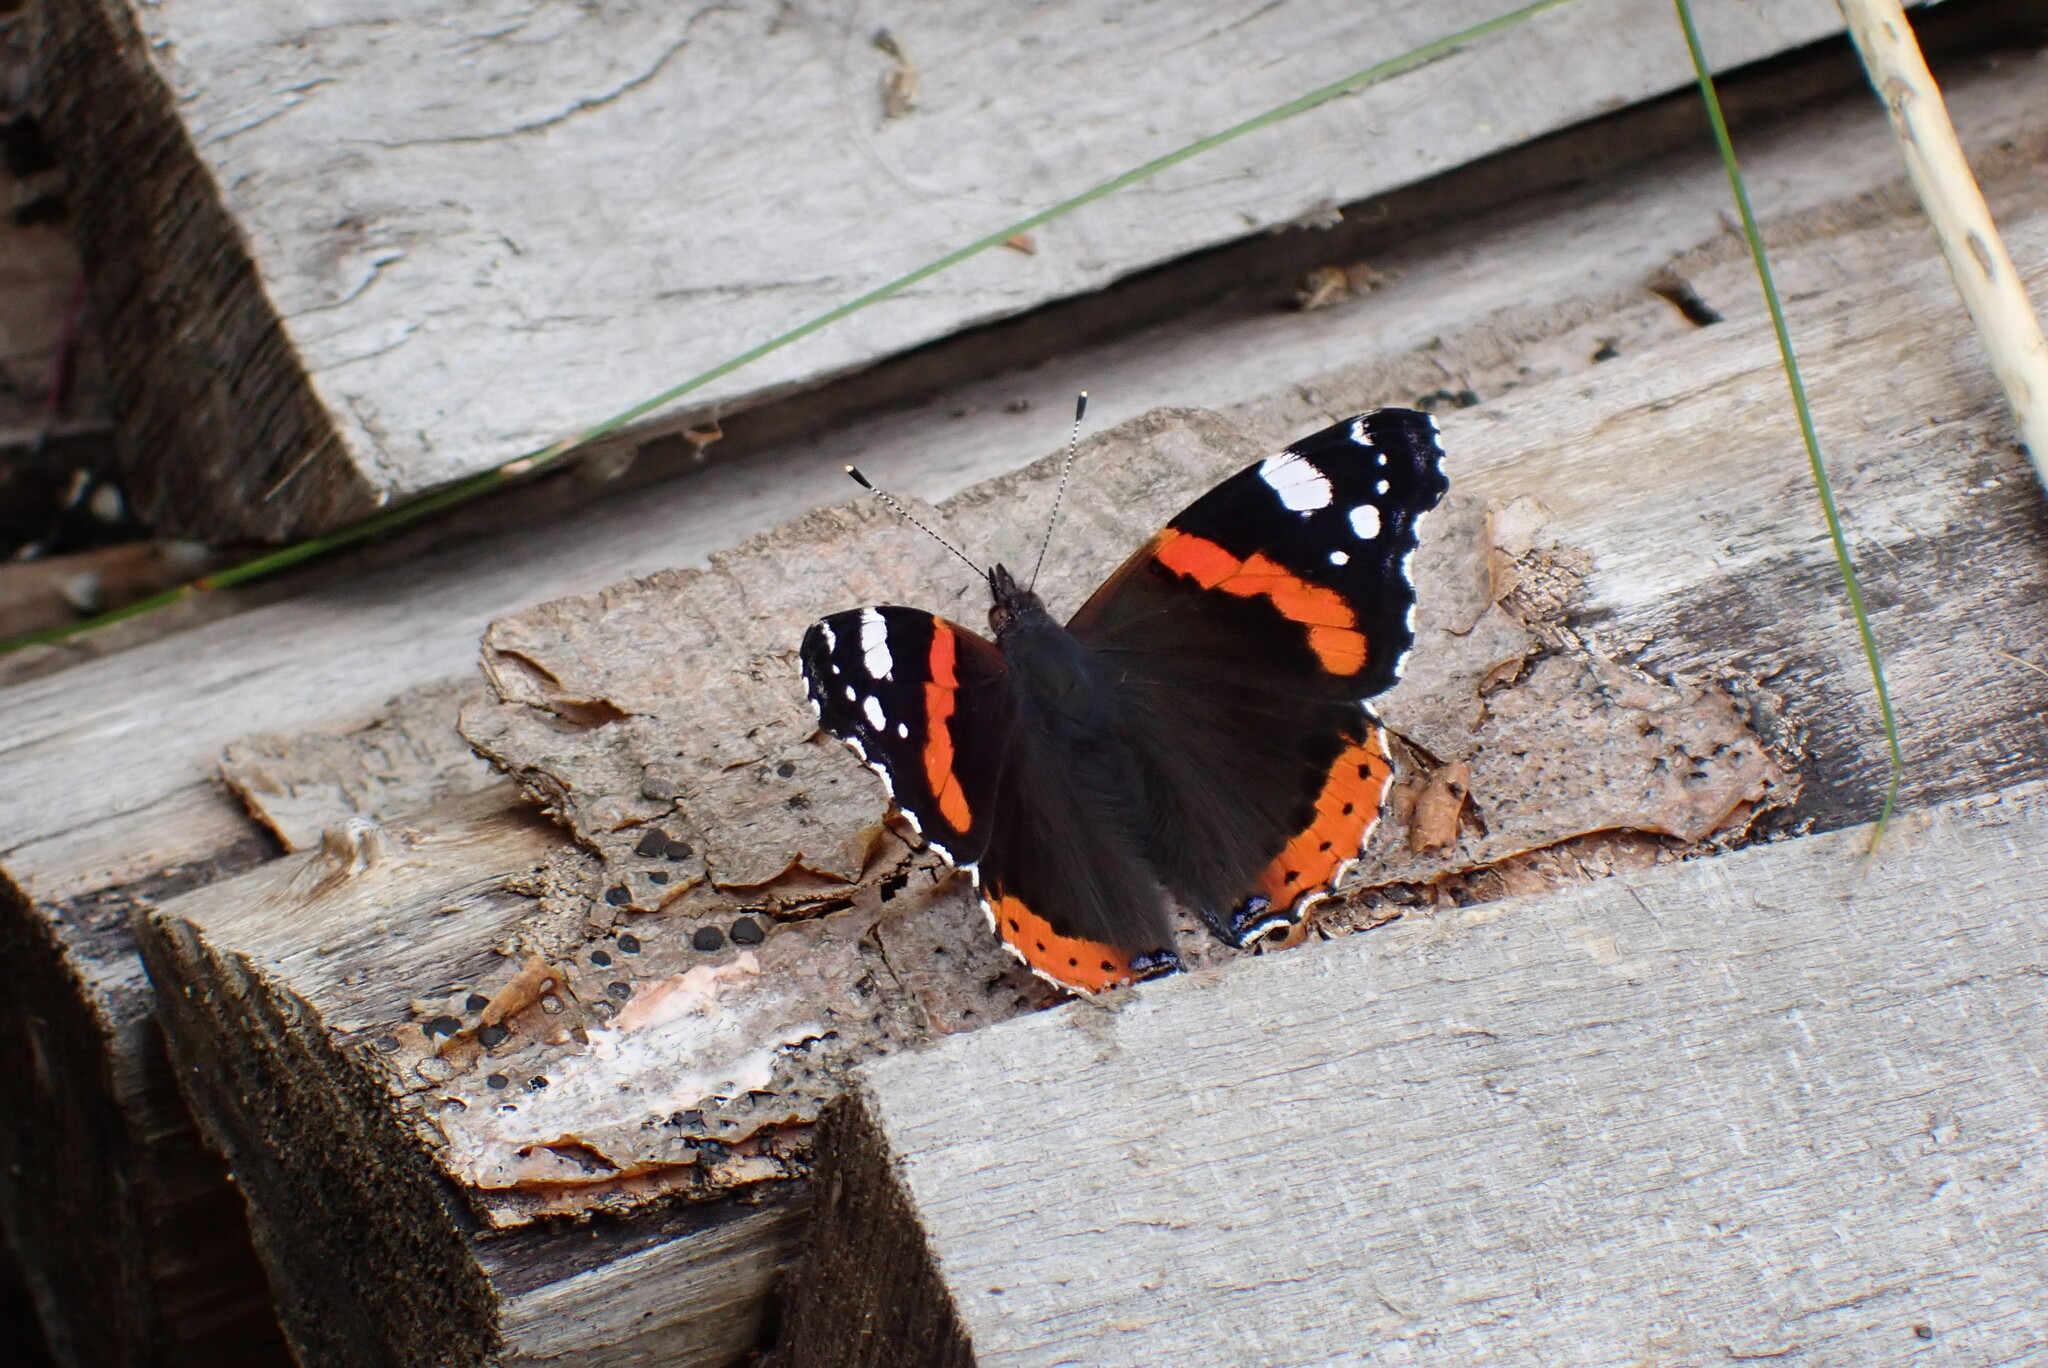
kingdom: Animalia
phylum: Arthropoda
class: Insecta
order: Lepidoptera
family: Nymphalidae
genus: Vanessa
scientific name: Vanessa atalanta
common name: Red admiral
